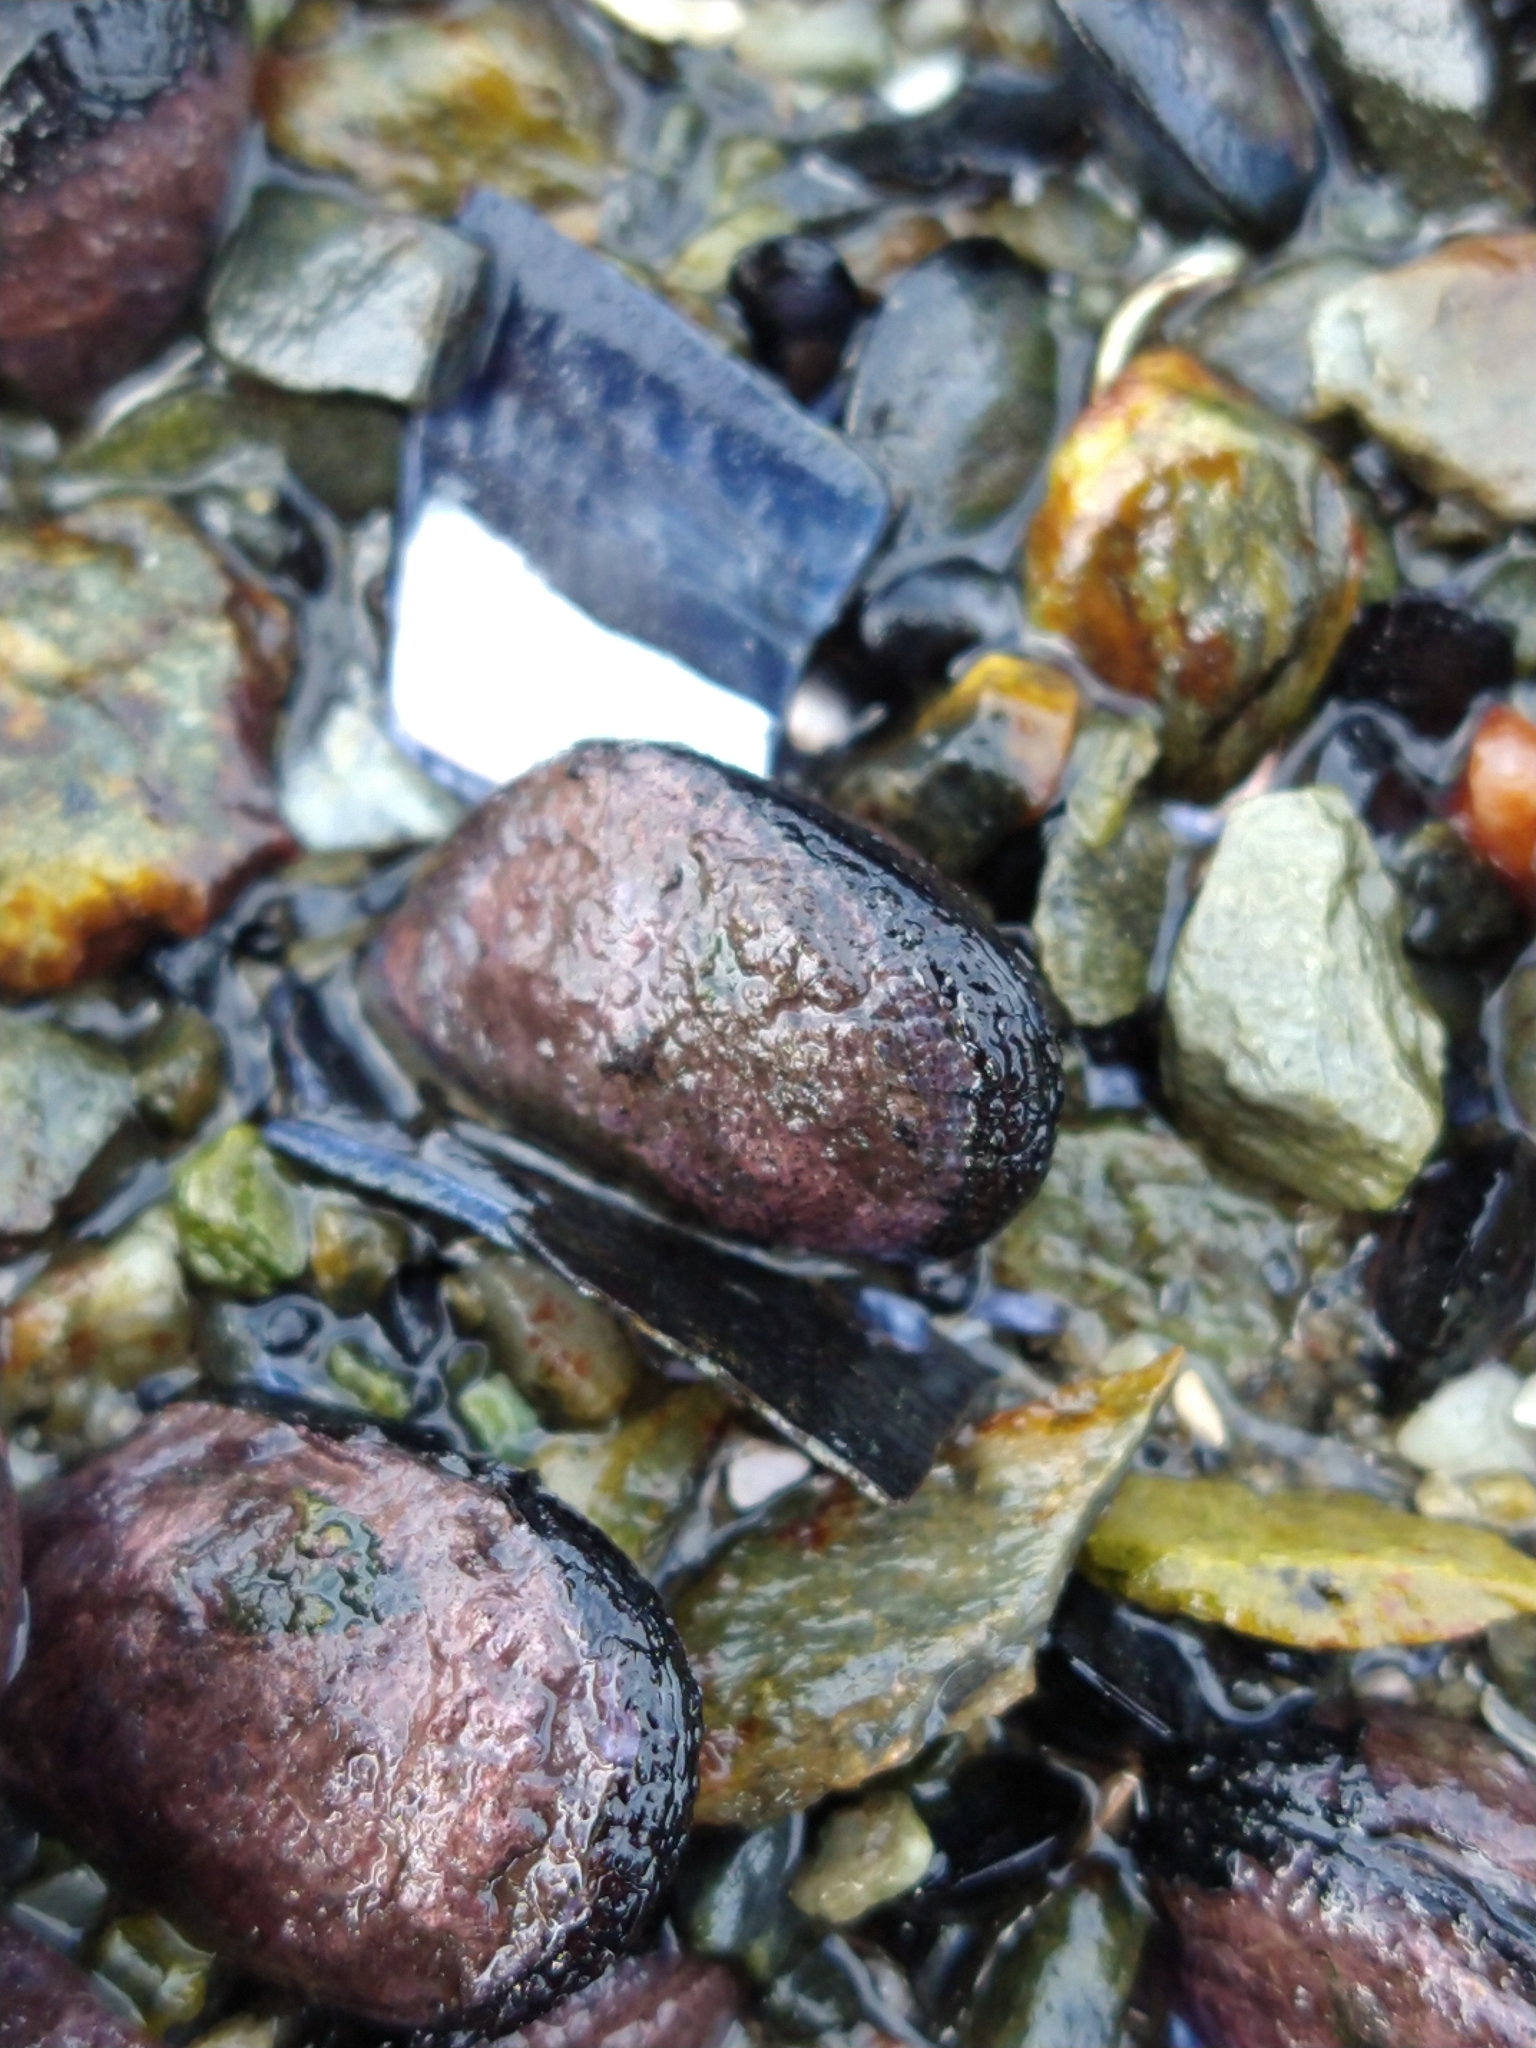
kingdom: Animalia
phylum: Mollusca
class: Bivalvia
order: Mytilida
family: Mytilidae
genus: Perumytilus
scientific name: Perumytilus purpuratus
